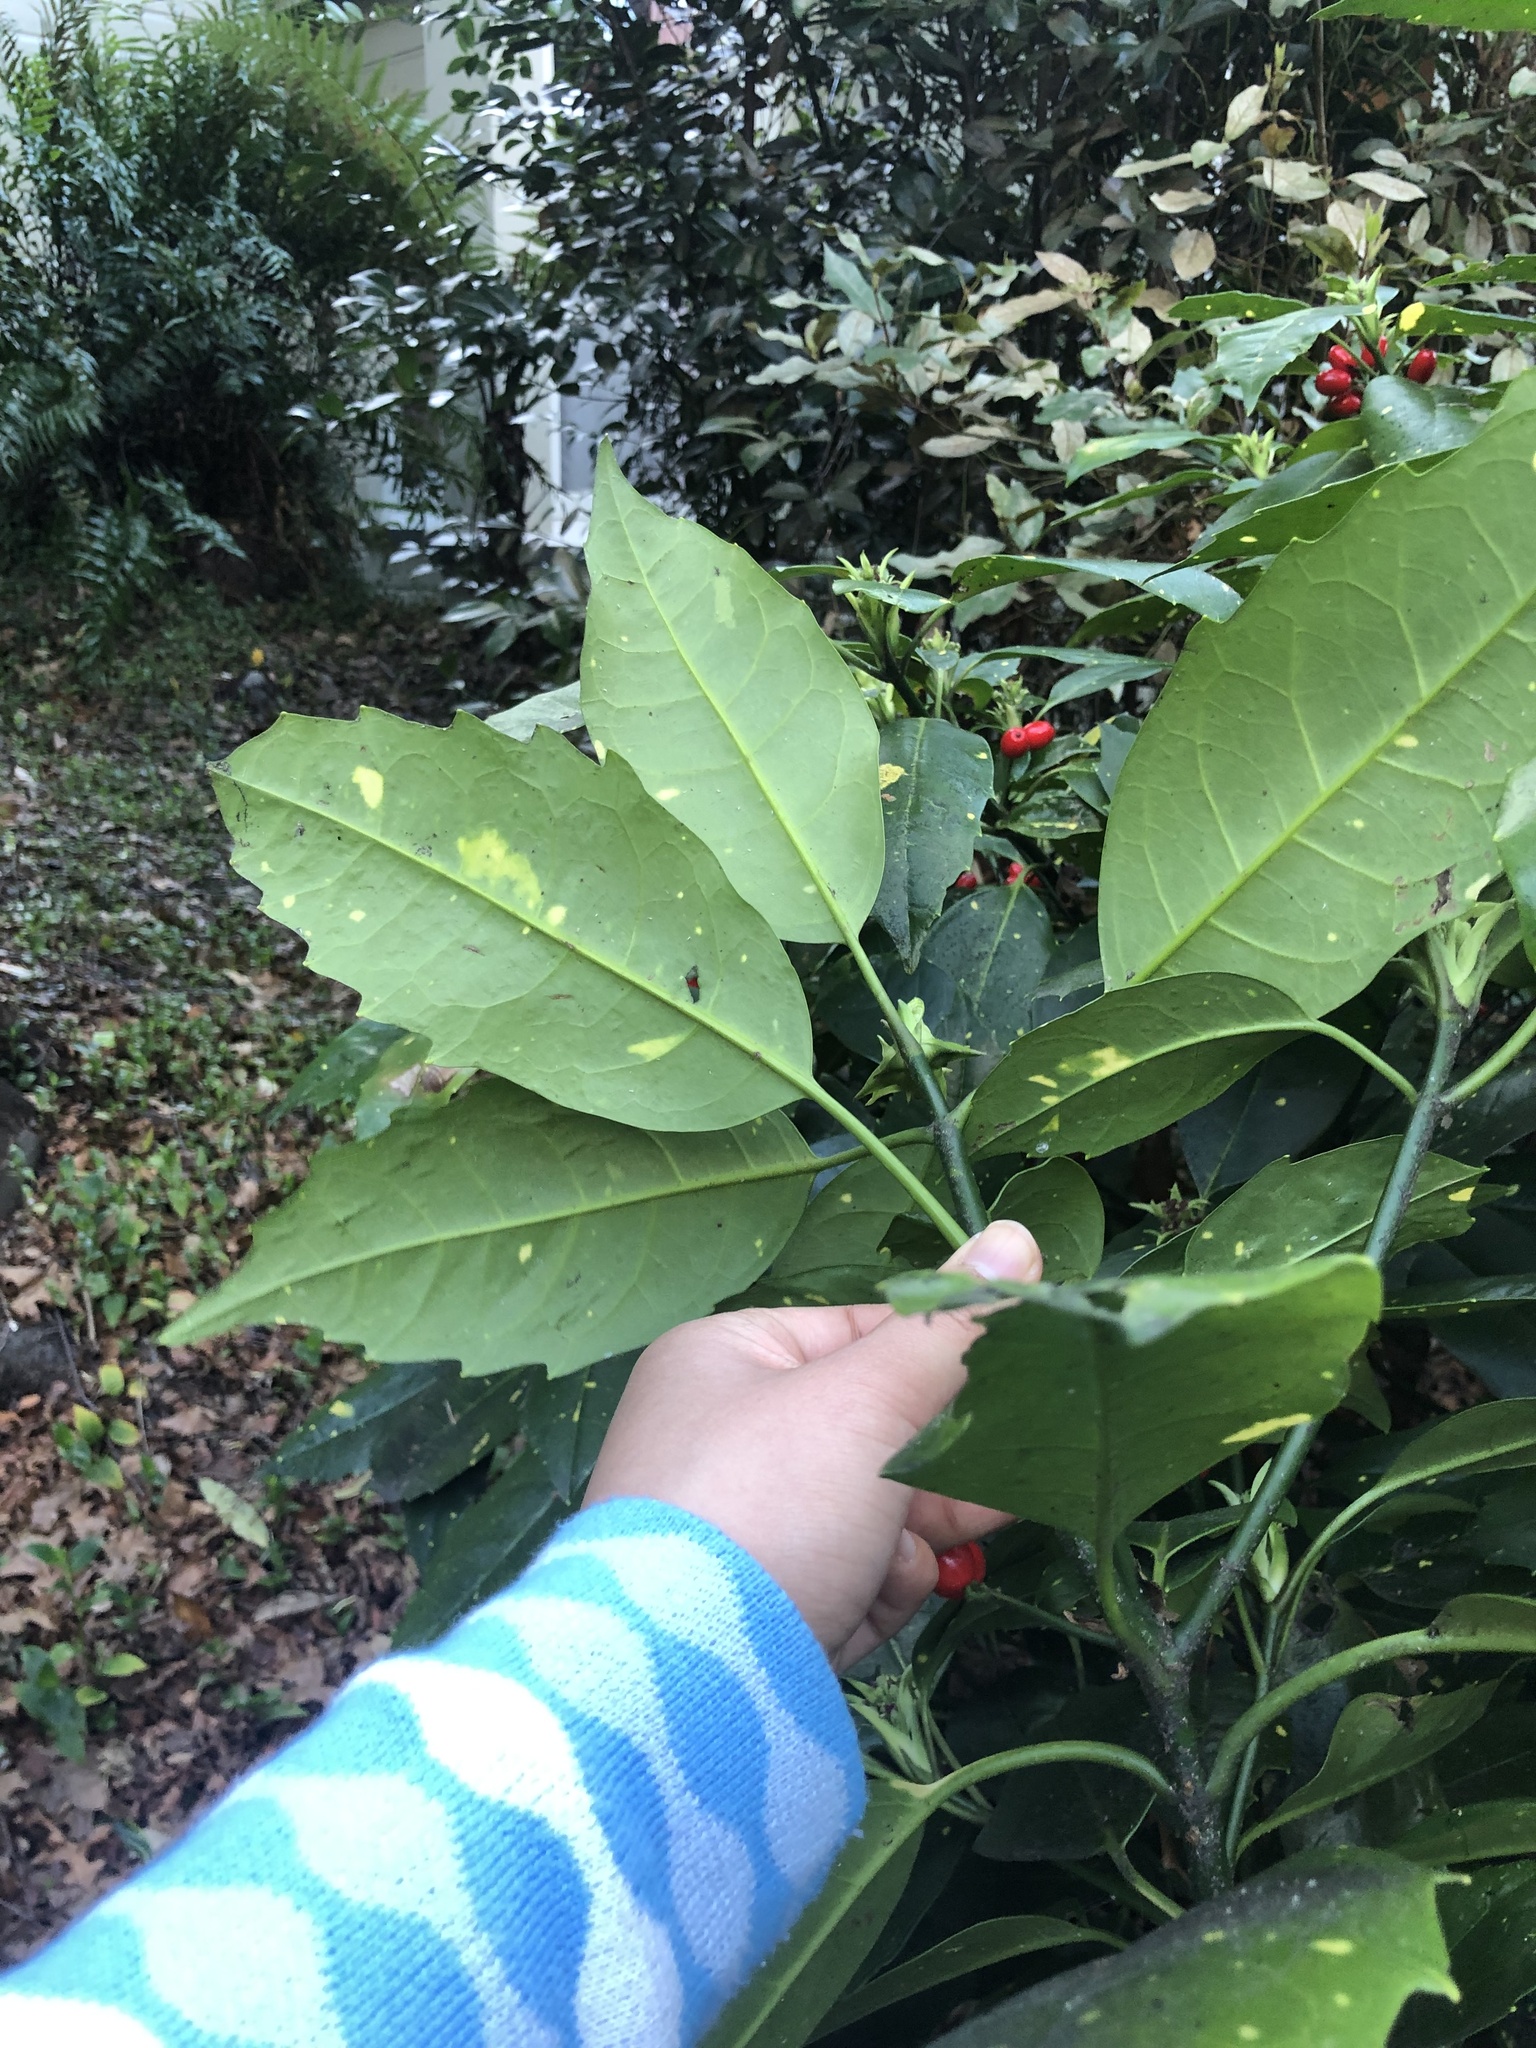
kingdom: Plantae
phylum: Tracheophyta
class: Magnoliopsida
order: Garryales
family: Garryaceae
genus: Aucuba
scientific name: Aucuba japonica
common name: Spotted-laurel
